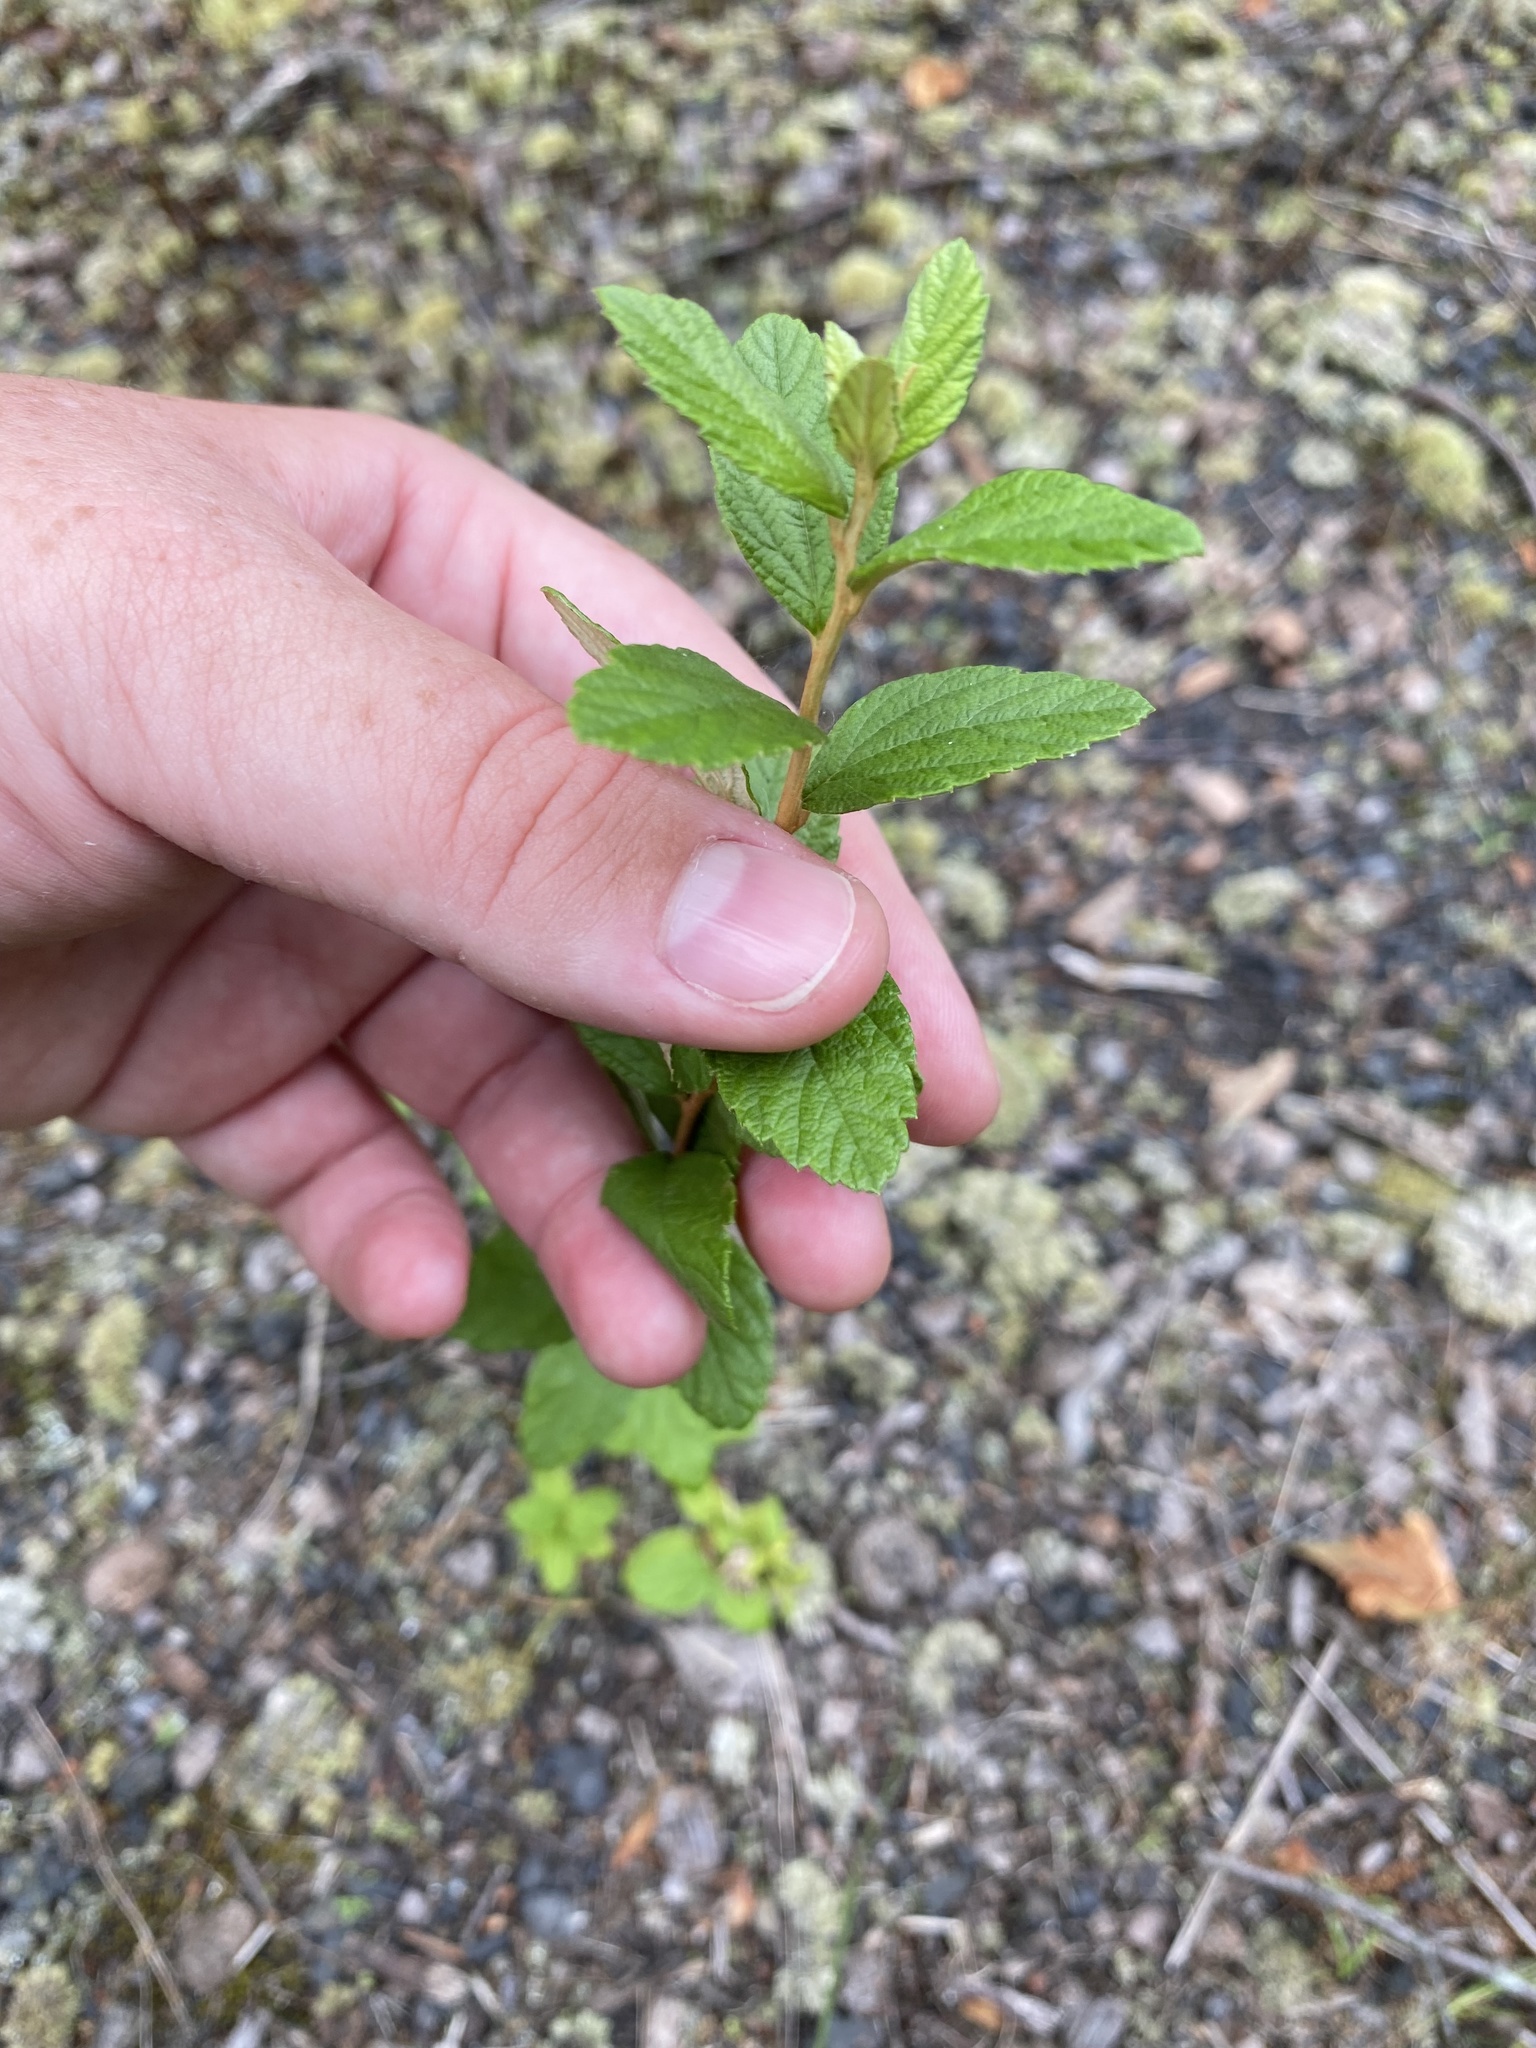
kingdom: Plantae
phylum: Tracheophyta
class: Magnoliopsida
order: Rosales
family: Rosaceae
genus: Spiraea
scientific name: Spiraea tomentosa
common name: Hardhack
